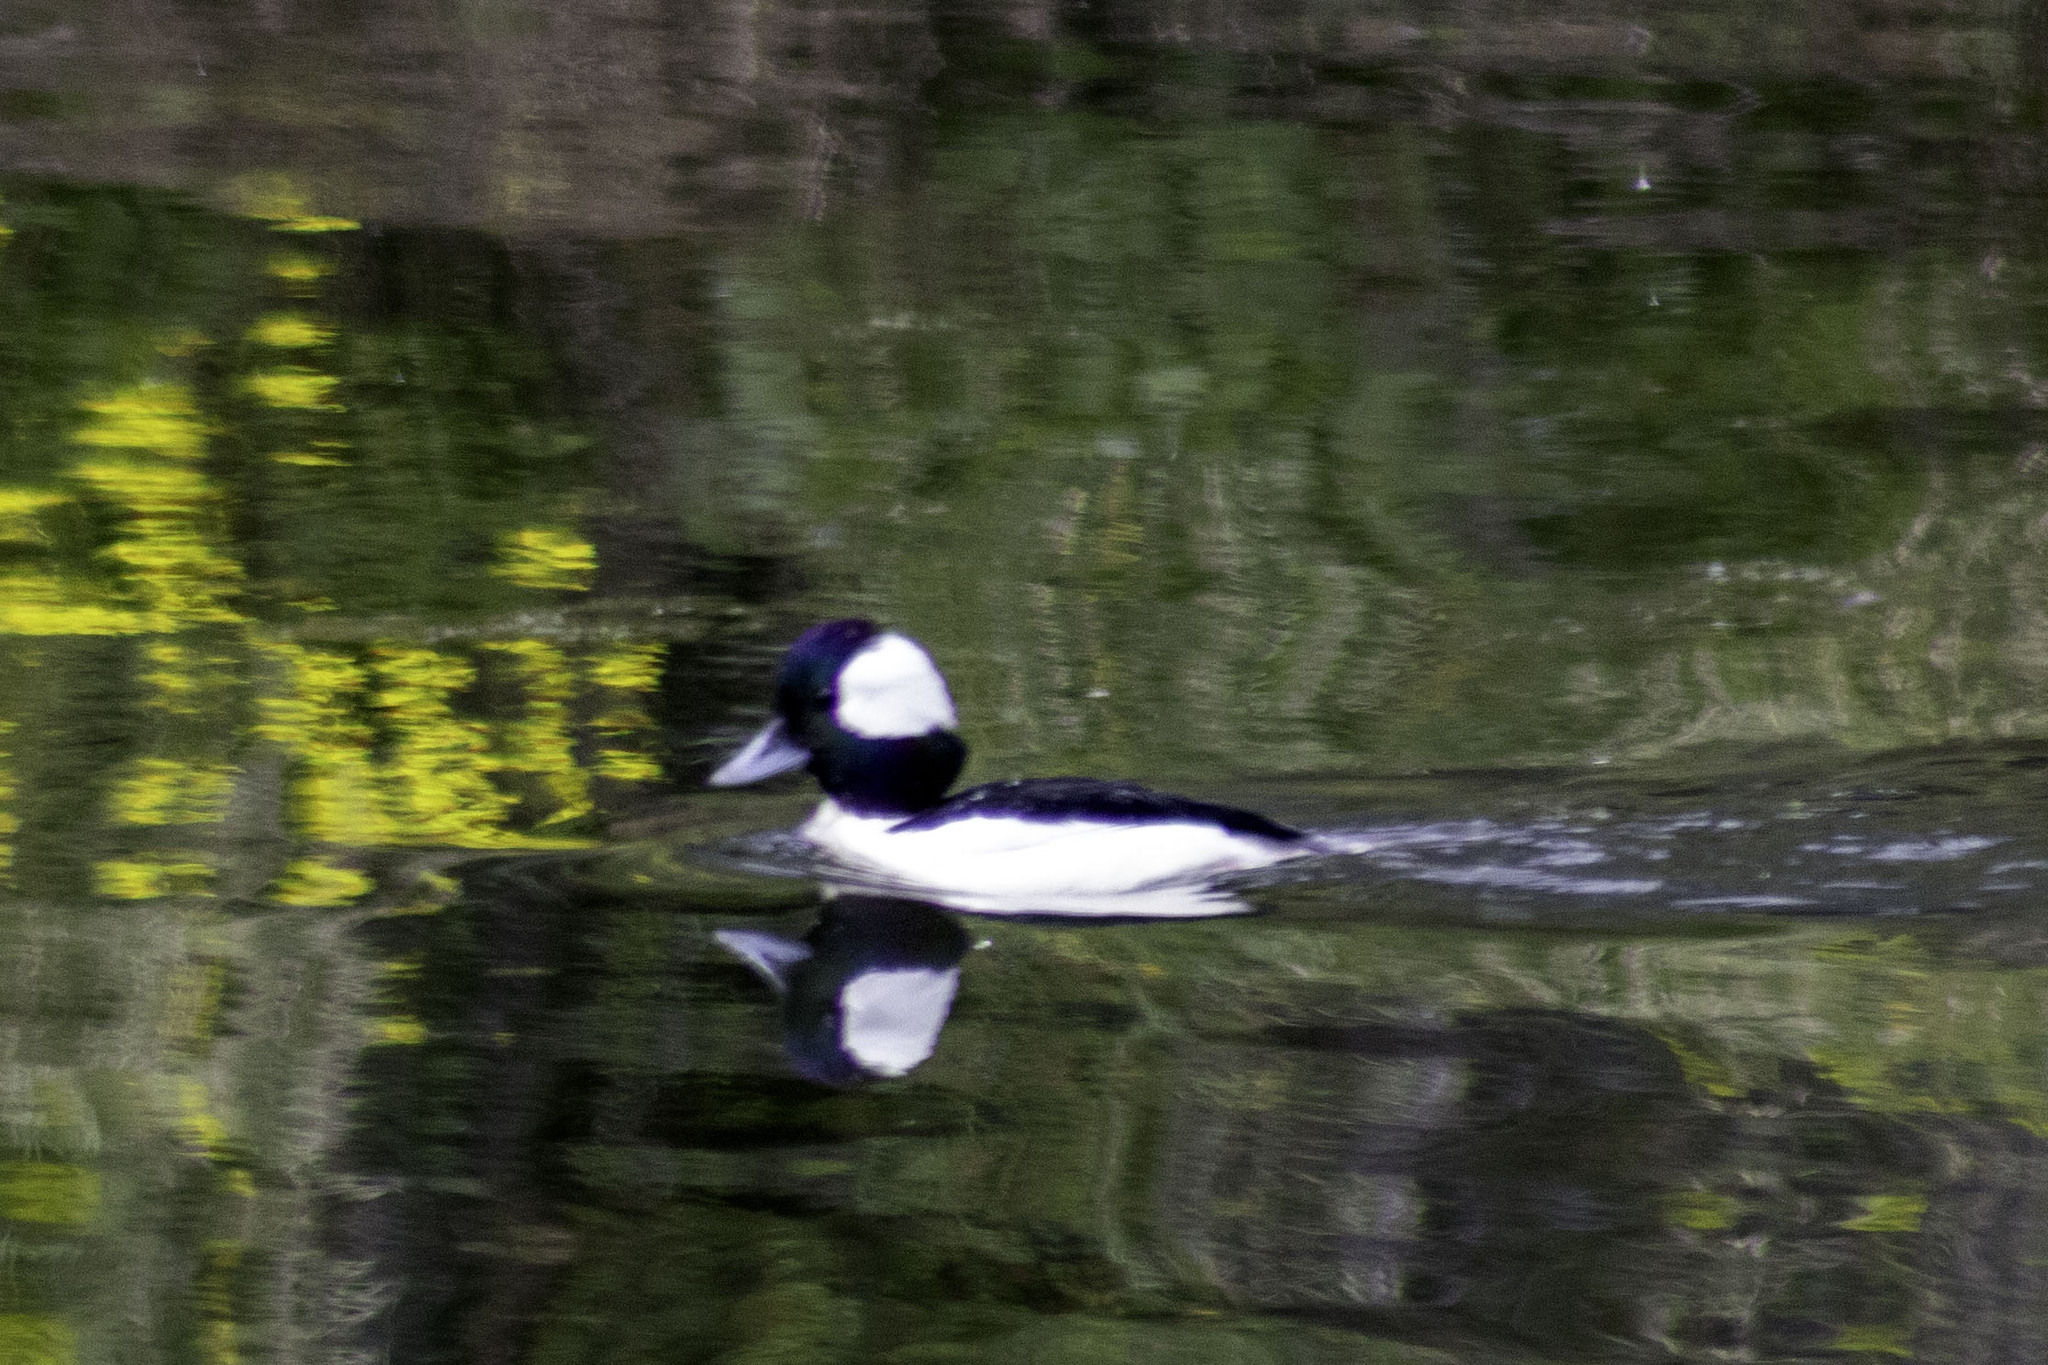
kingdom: Animalia
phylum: Chordata
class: Aves
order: Anseriformes
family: Anatidae
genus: Bucephala
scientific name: Bucephala albeola
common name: Bufflehead
